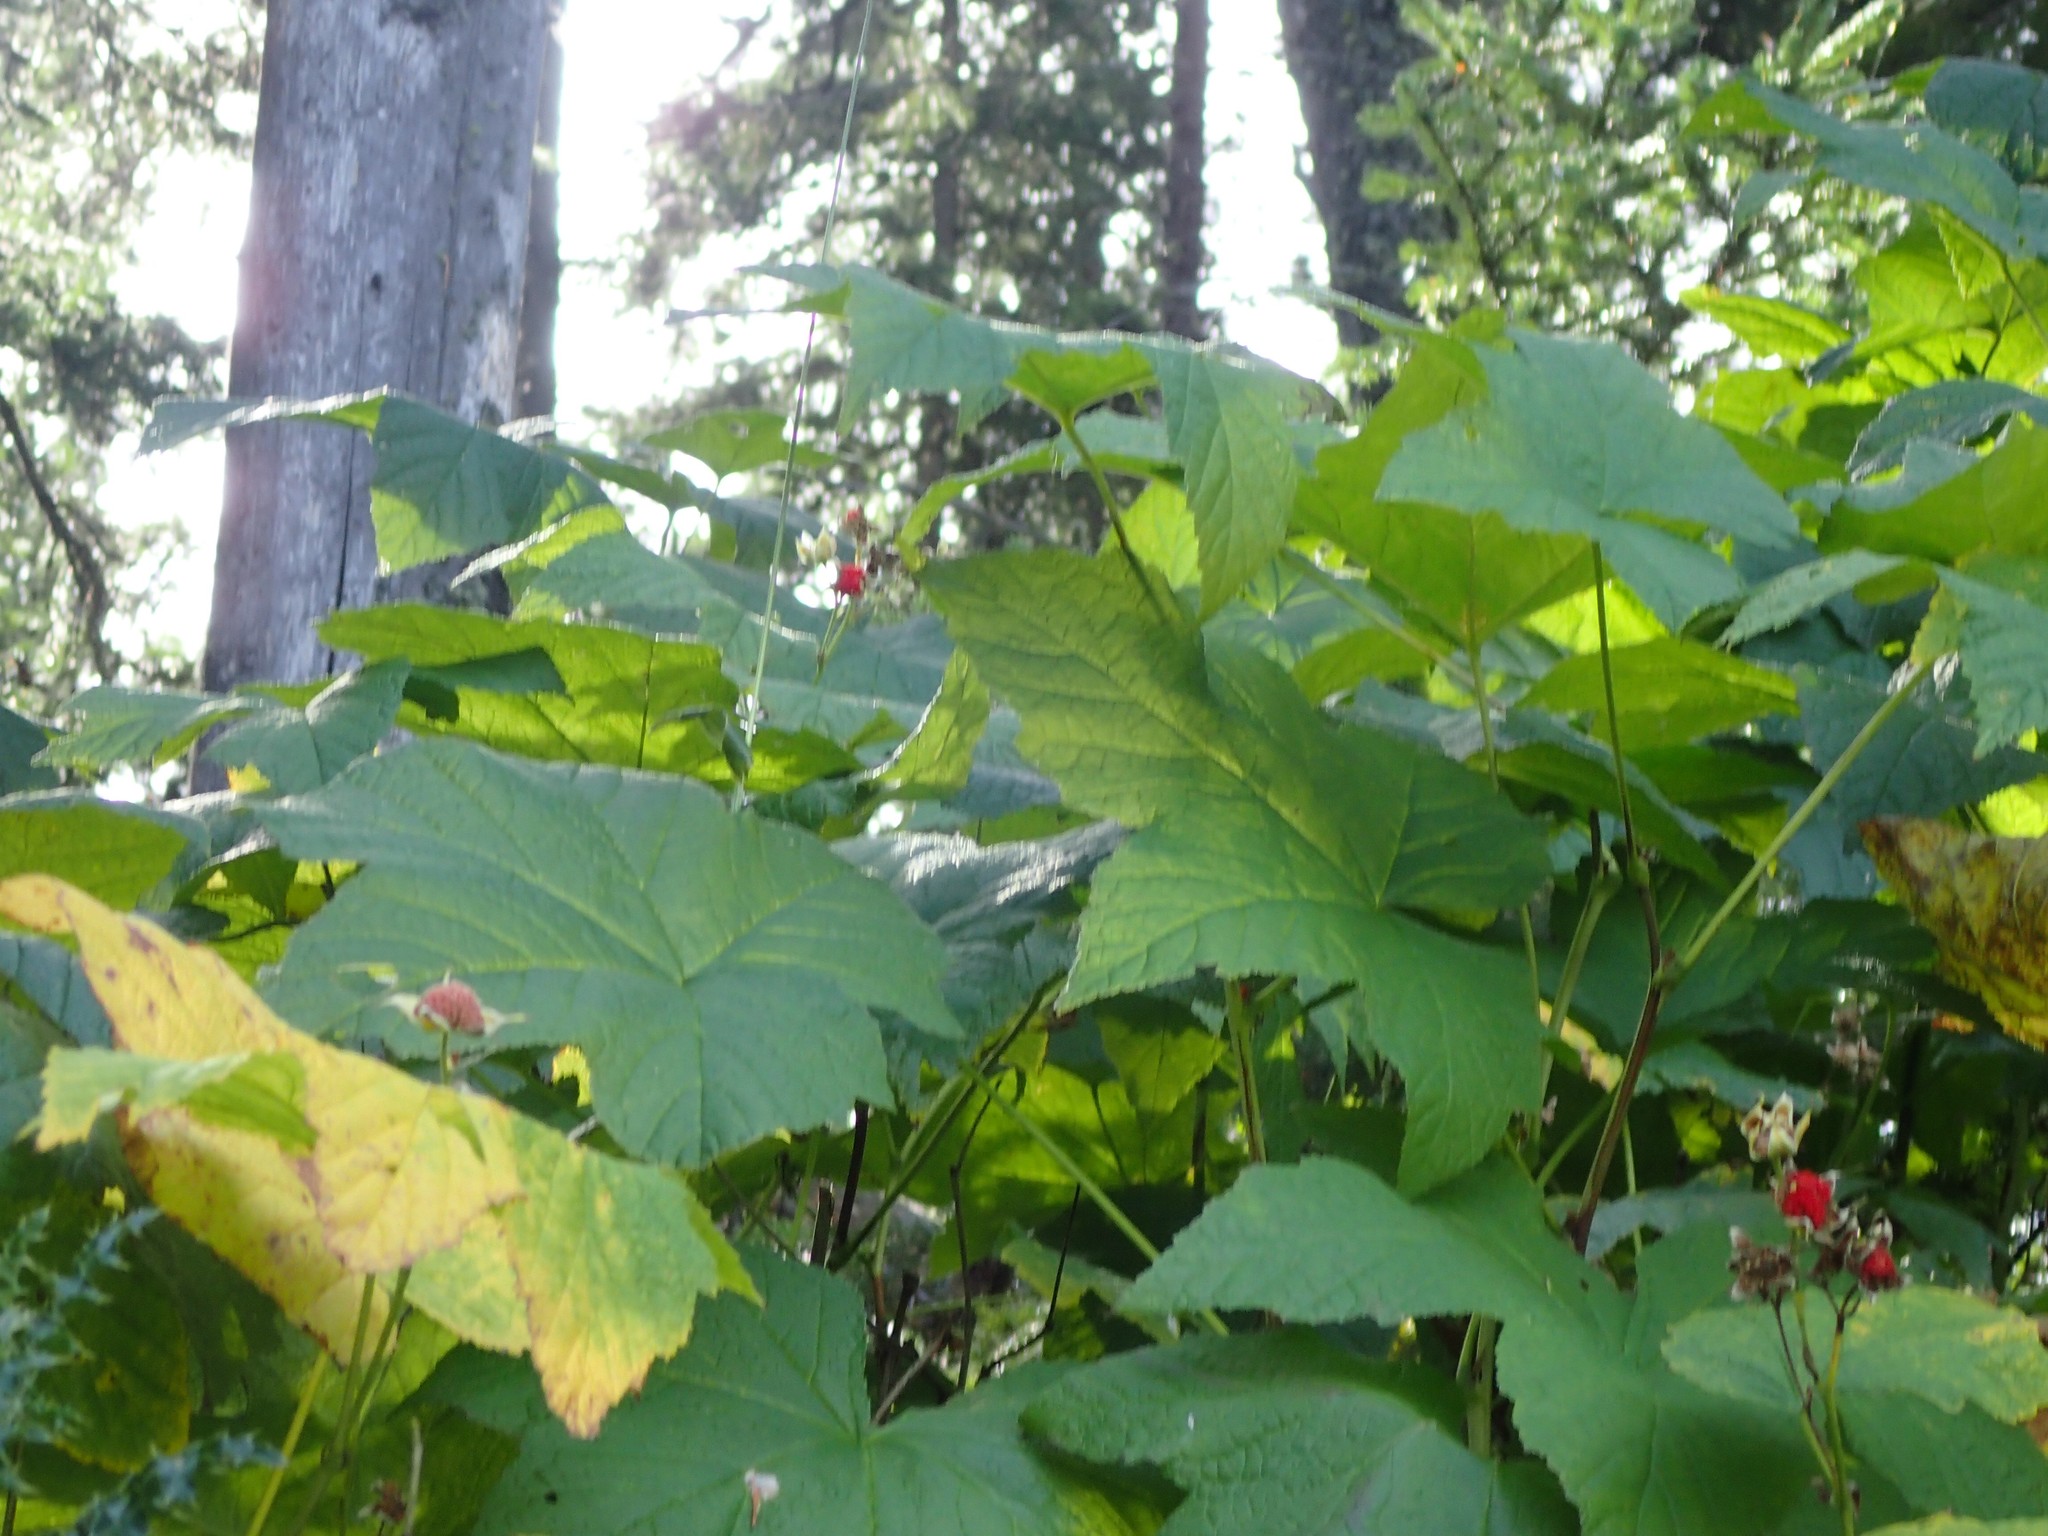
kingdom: Plantae
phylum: Tracheophyta
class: Magnoliopsida
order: Rosales
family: Rosaceae
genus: Rubus
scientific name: Rubus parviflorus
